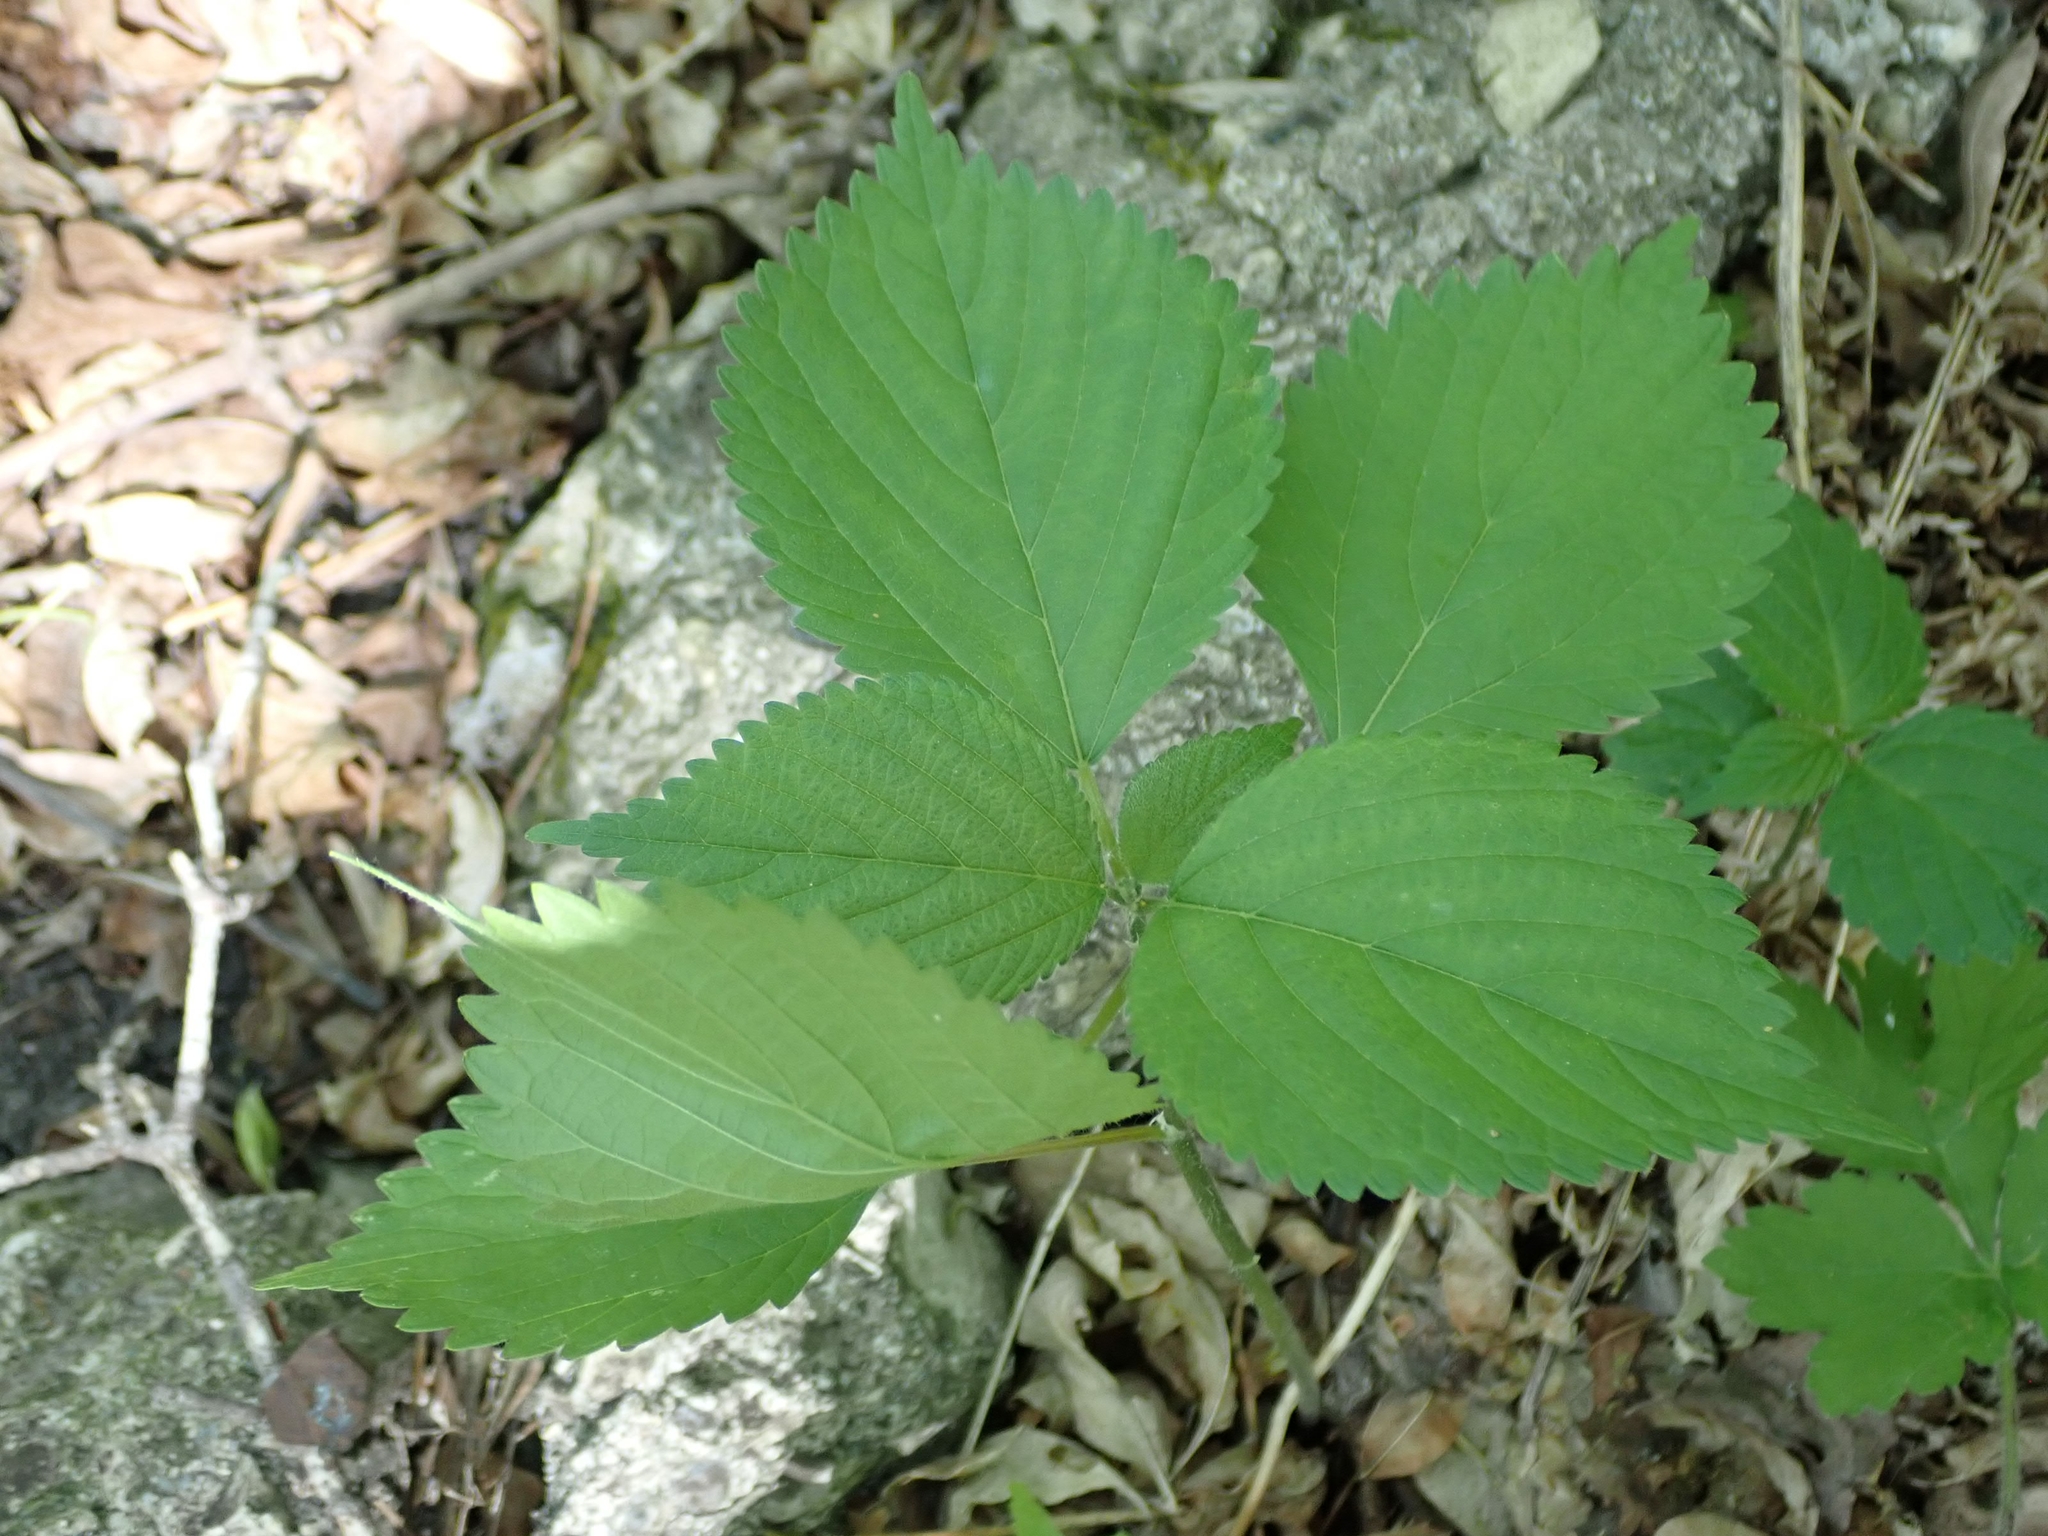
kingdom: Plantae
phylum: Tracheophyta
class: Magnoliopsida
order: Rosales
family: Urticaceae
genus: Laportea
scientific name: Laportea canadensis
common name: Canada nettle
